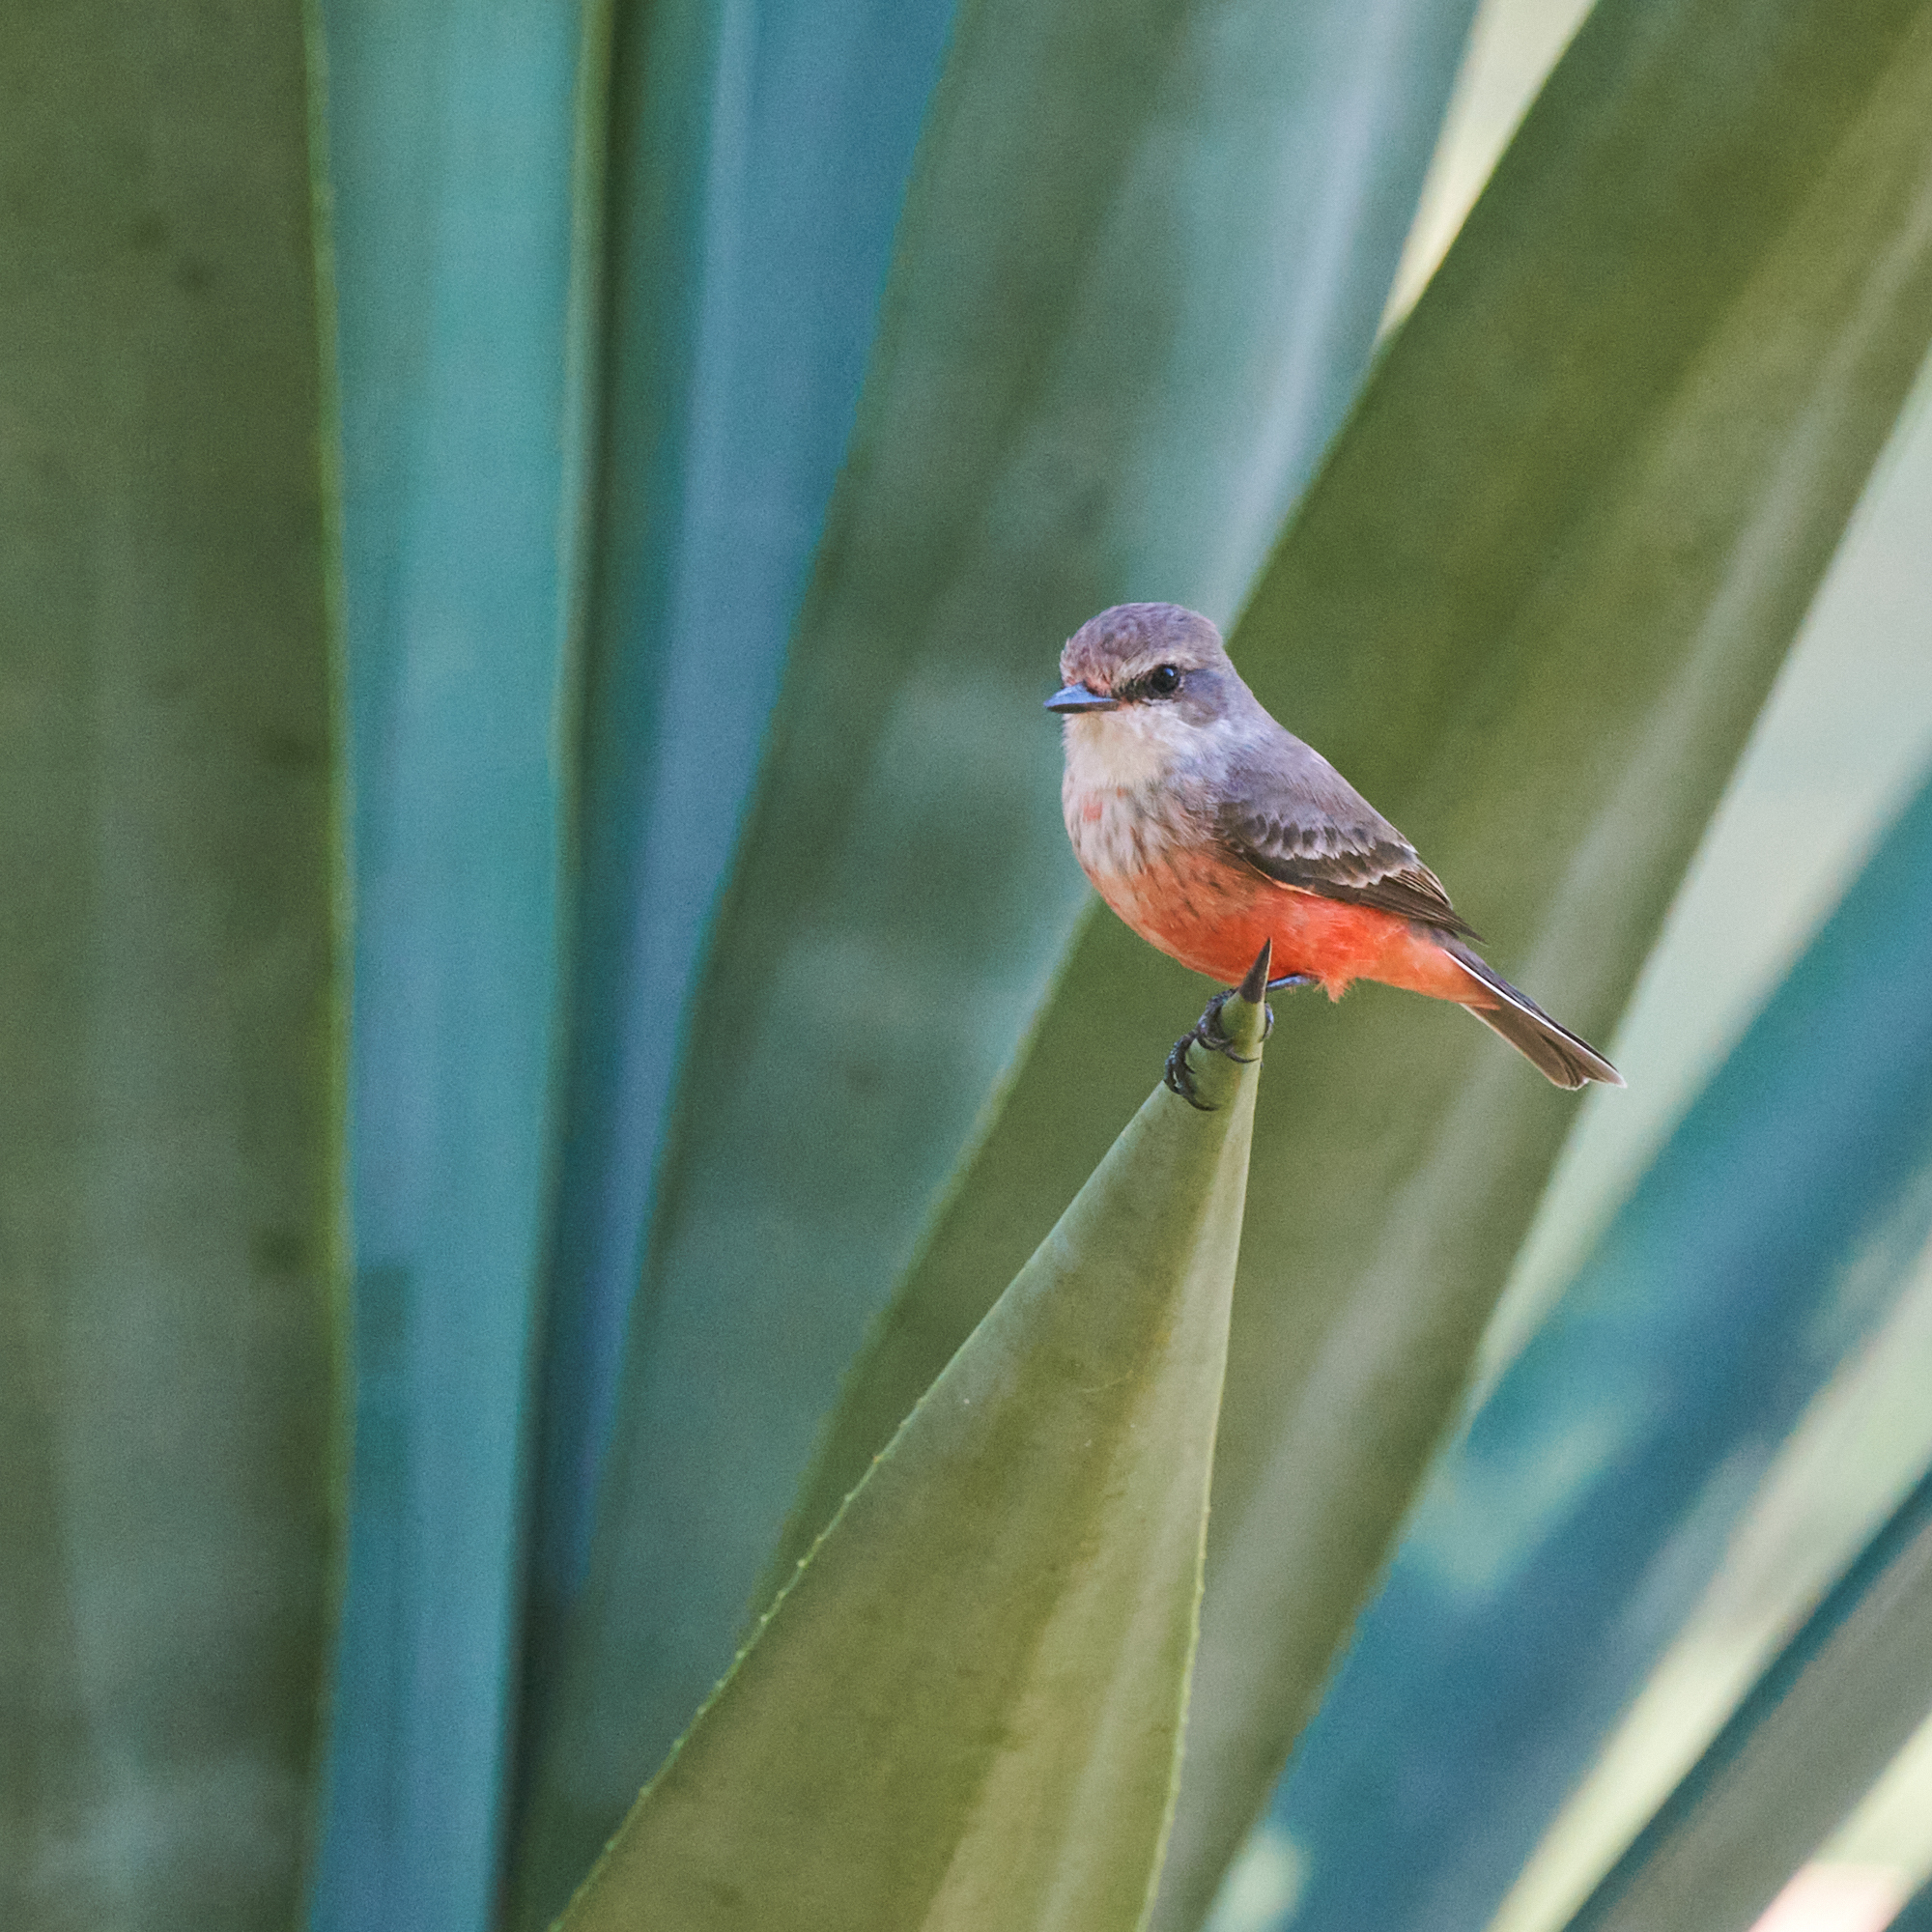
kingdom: Animalia
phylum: Chordata
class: Aves
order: Passeriformes
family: Tyrannidae
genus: Pyrocephalus
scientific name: Pyrocephalus rubinus
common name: Vermilion flycatcher
